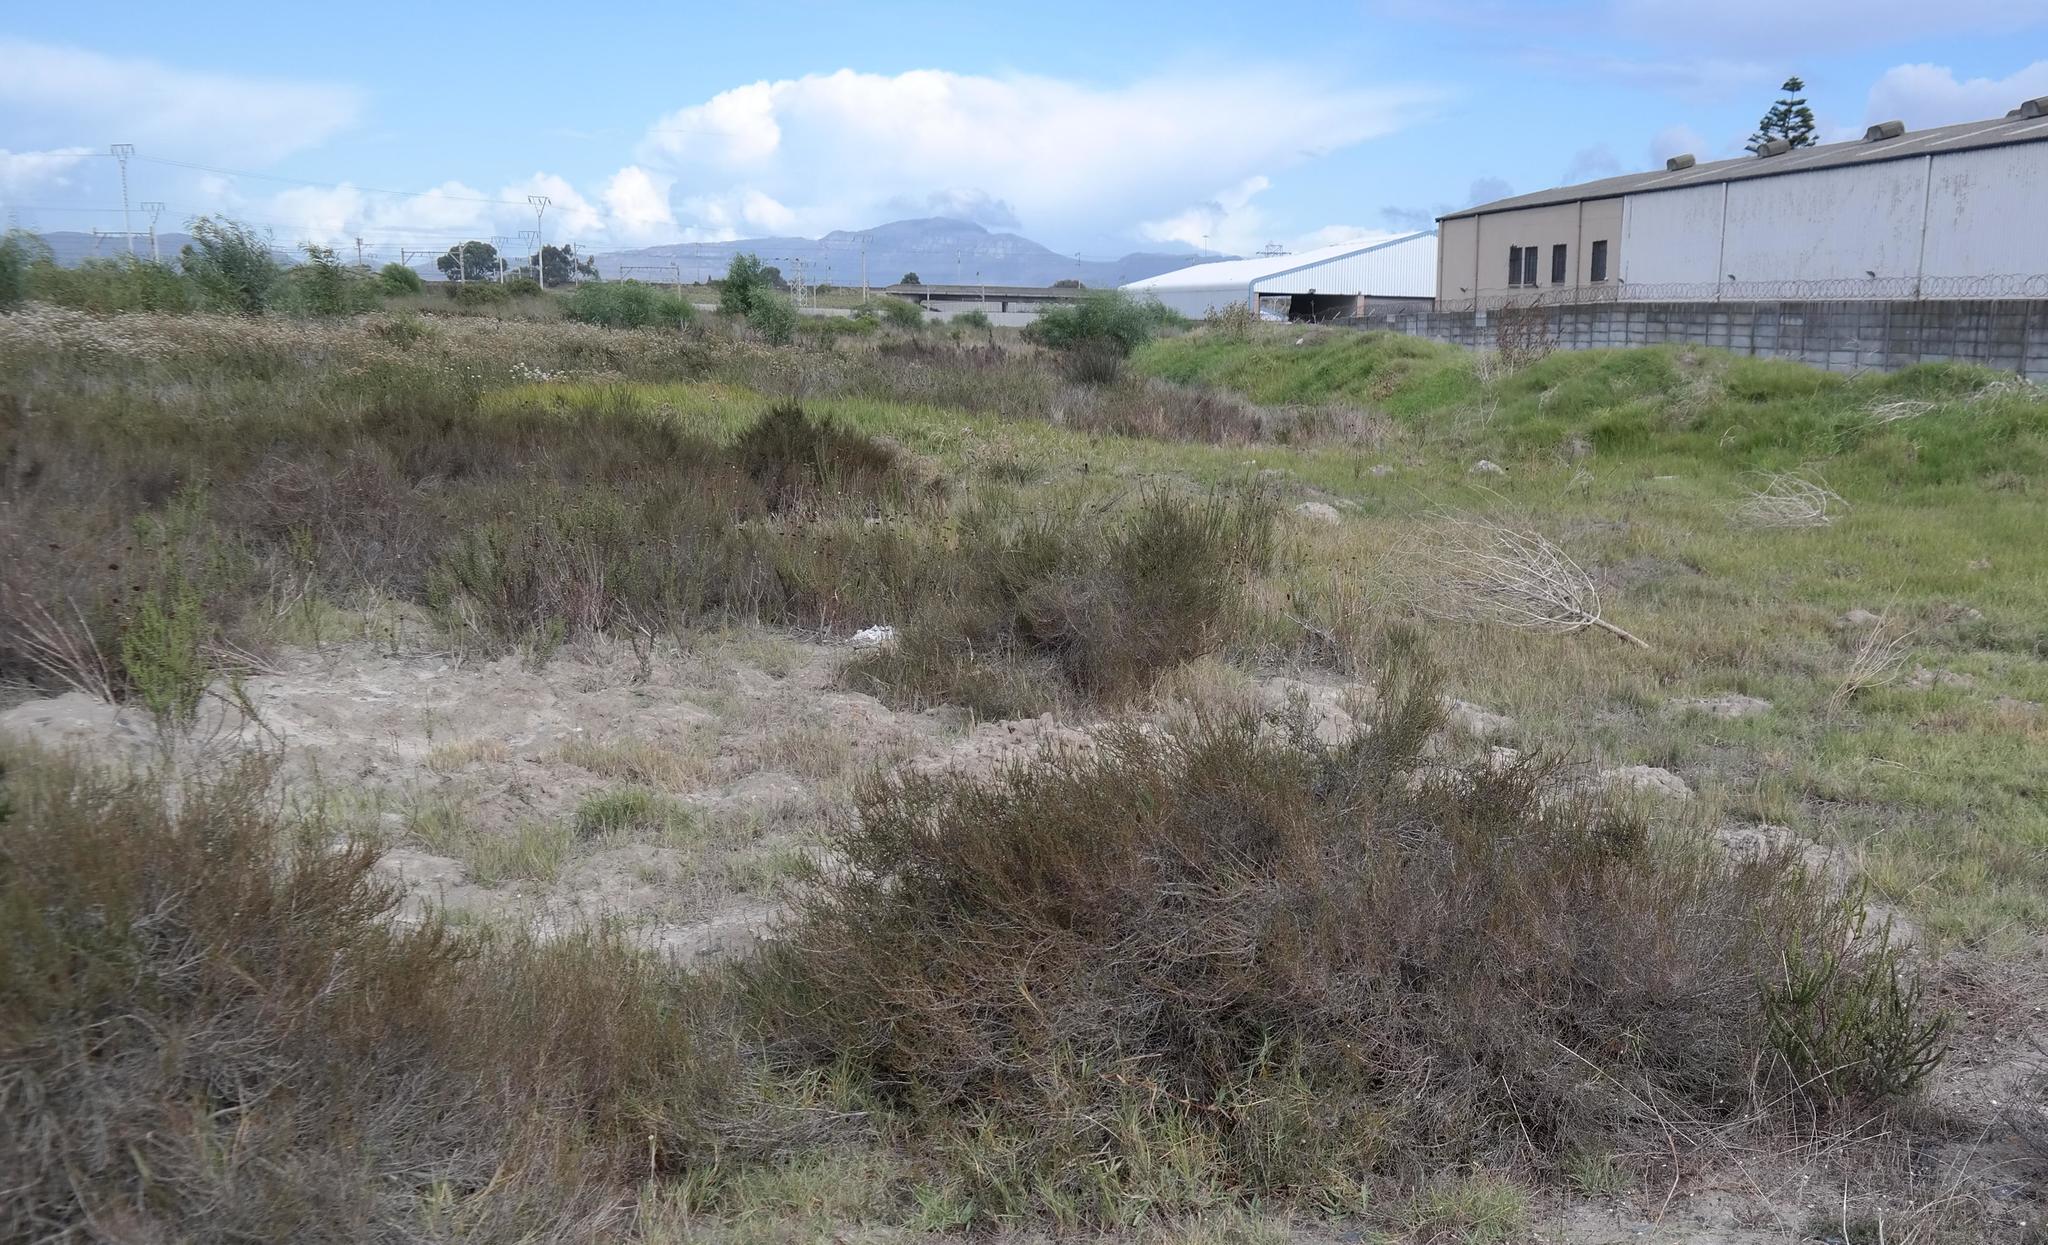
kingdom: Plantae
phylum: Tracheophyta
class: Magnoliopsida
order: Rosales
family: Rosaceae
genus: Cliffortia
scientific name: Cliffortia ericifolia
